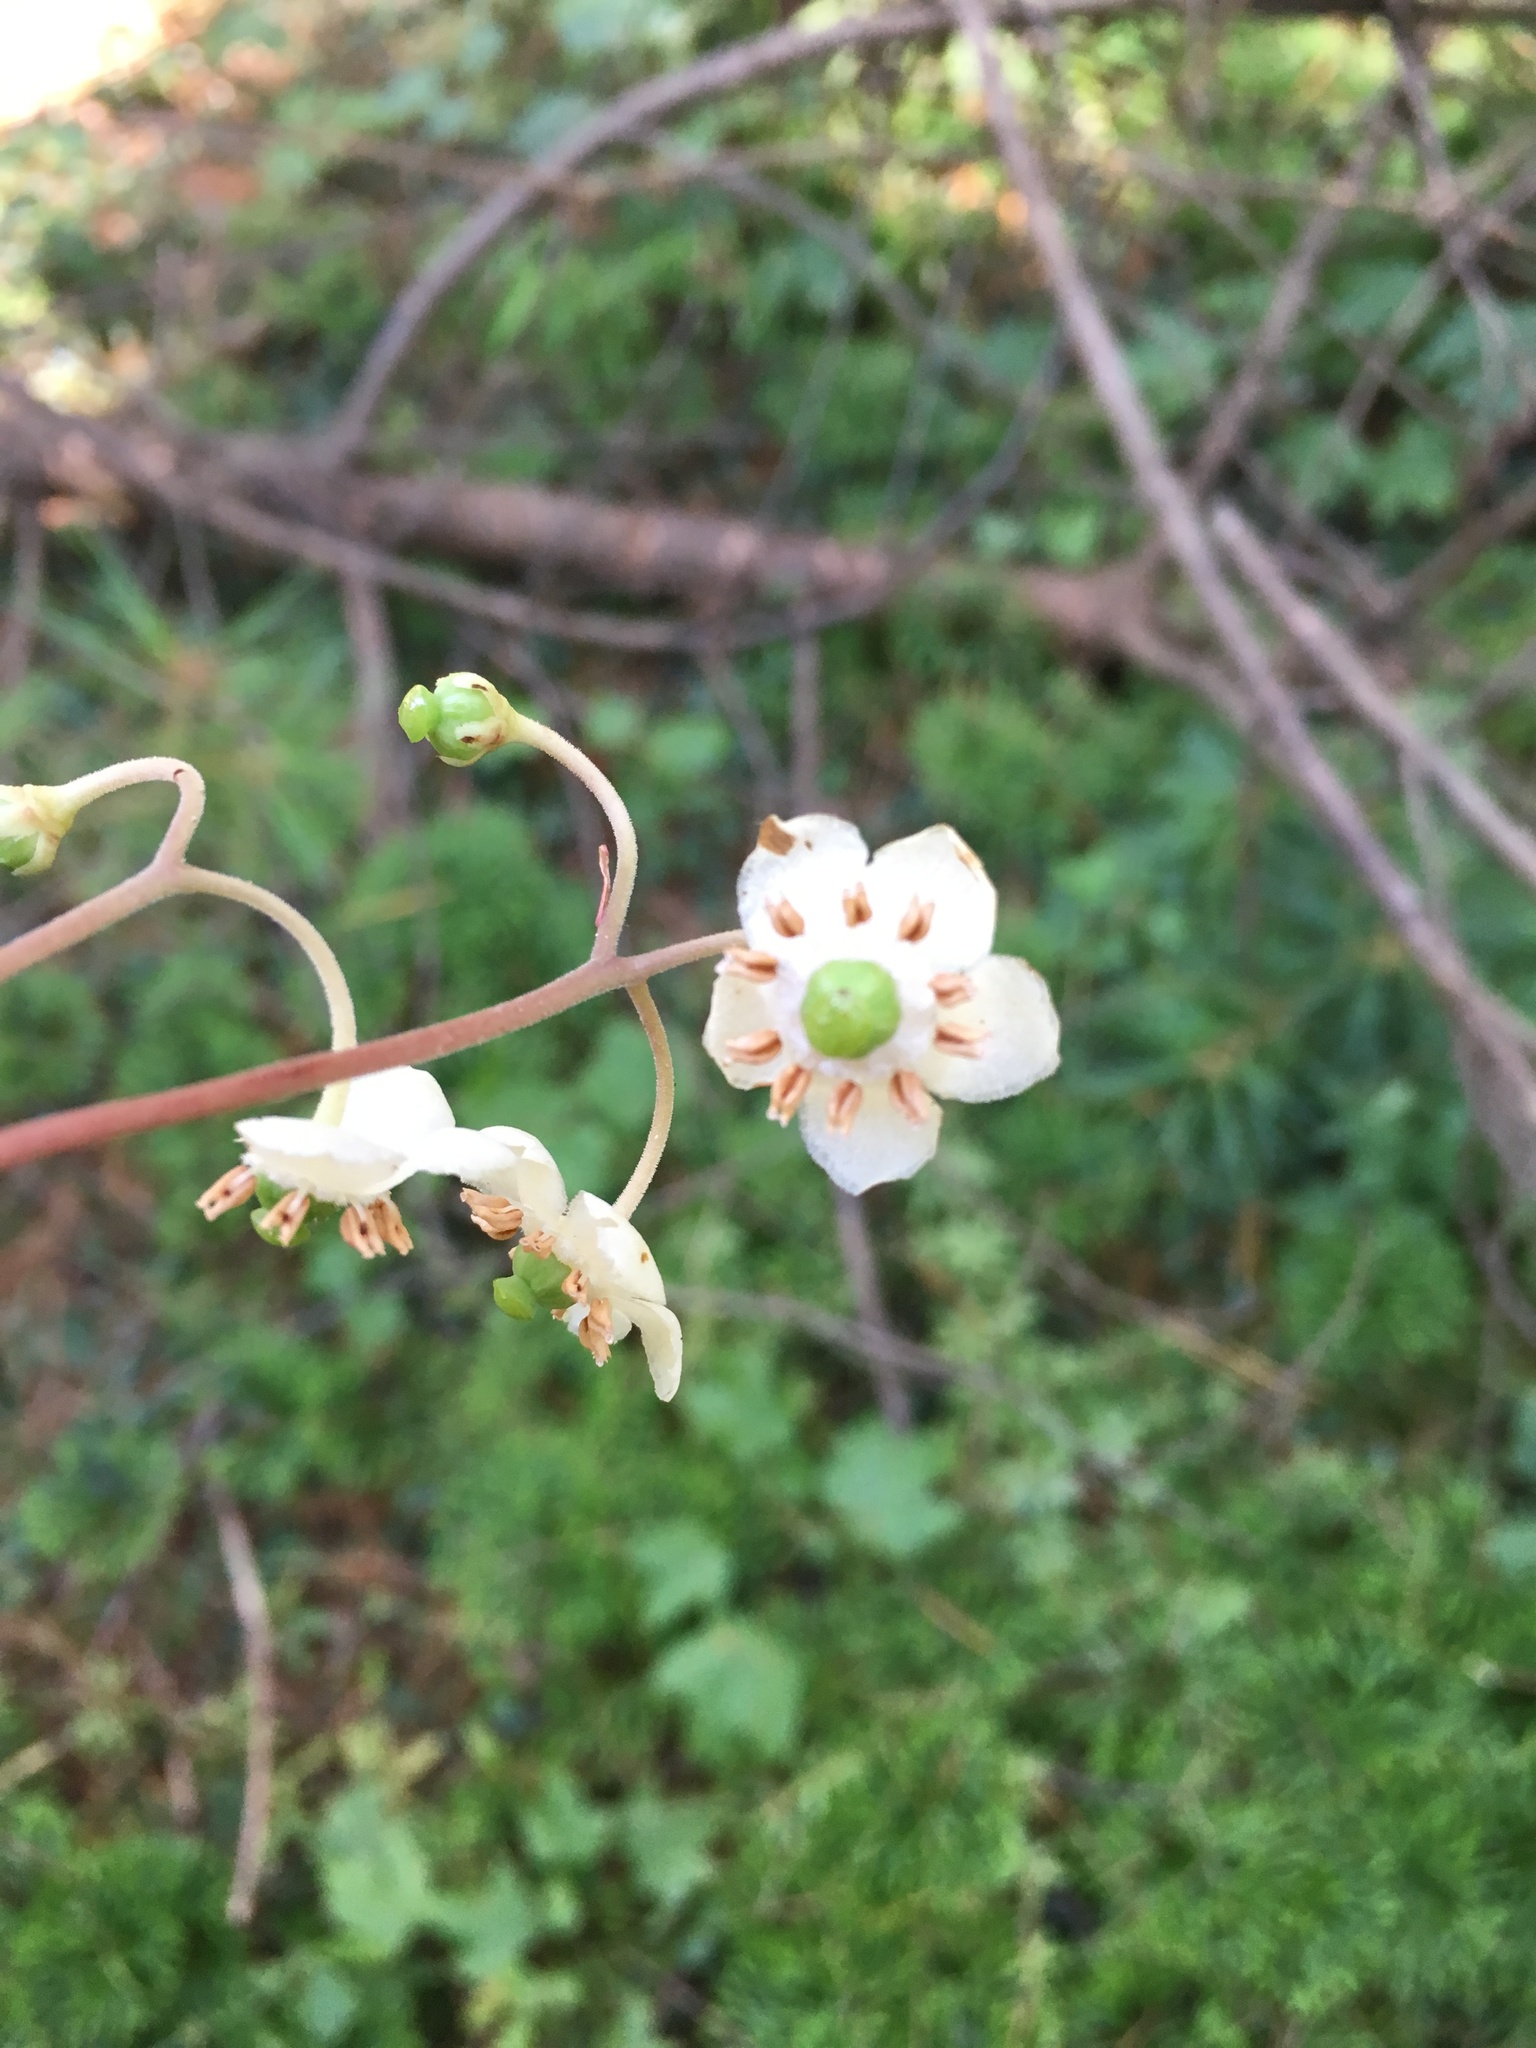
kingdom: Plantae
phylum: Tracheophyta
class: Magnoliopsida
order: Ericales
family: Ericaceae
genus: Chimaphila
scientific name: Chimaphila maculata
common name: Spotted pipsissewa
